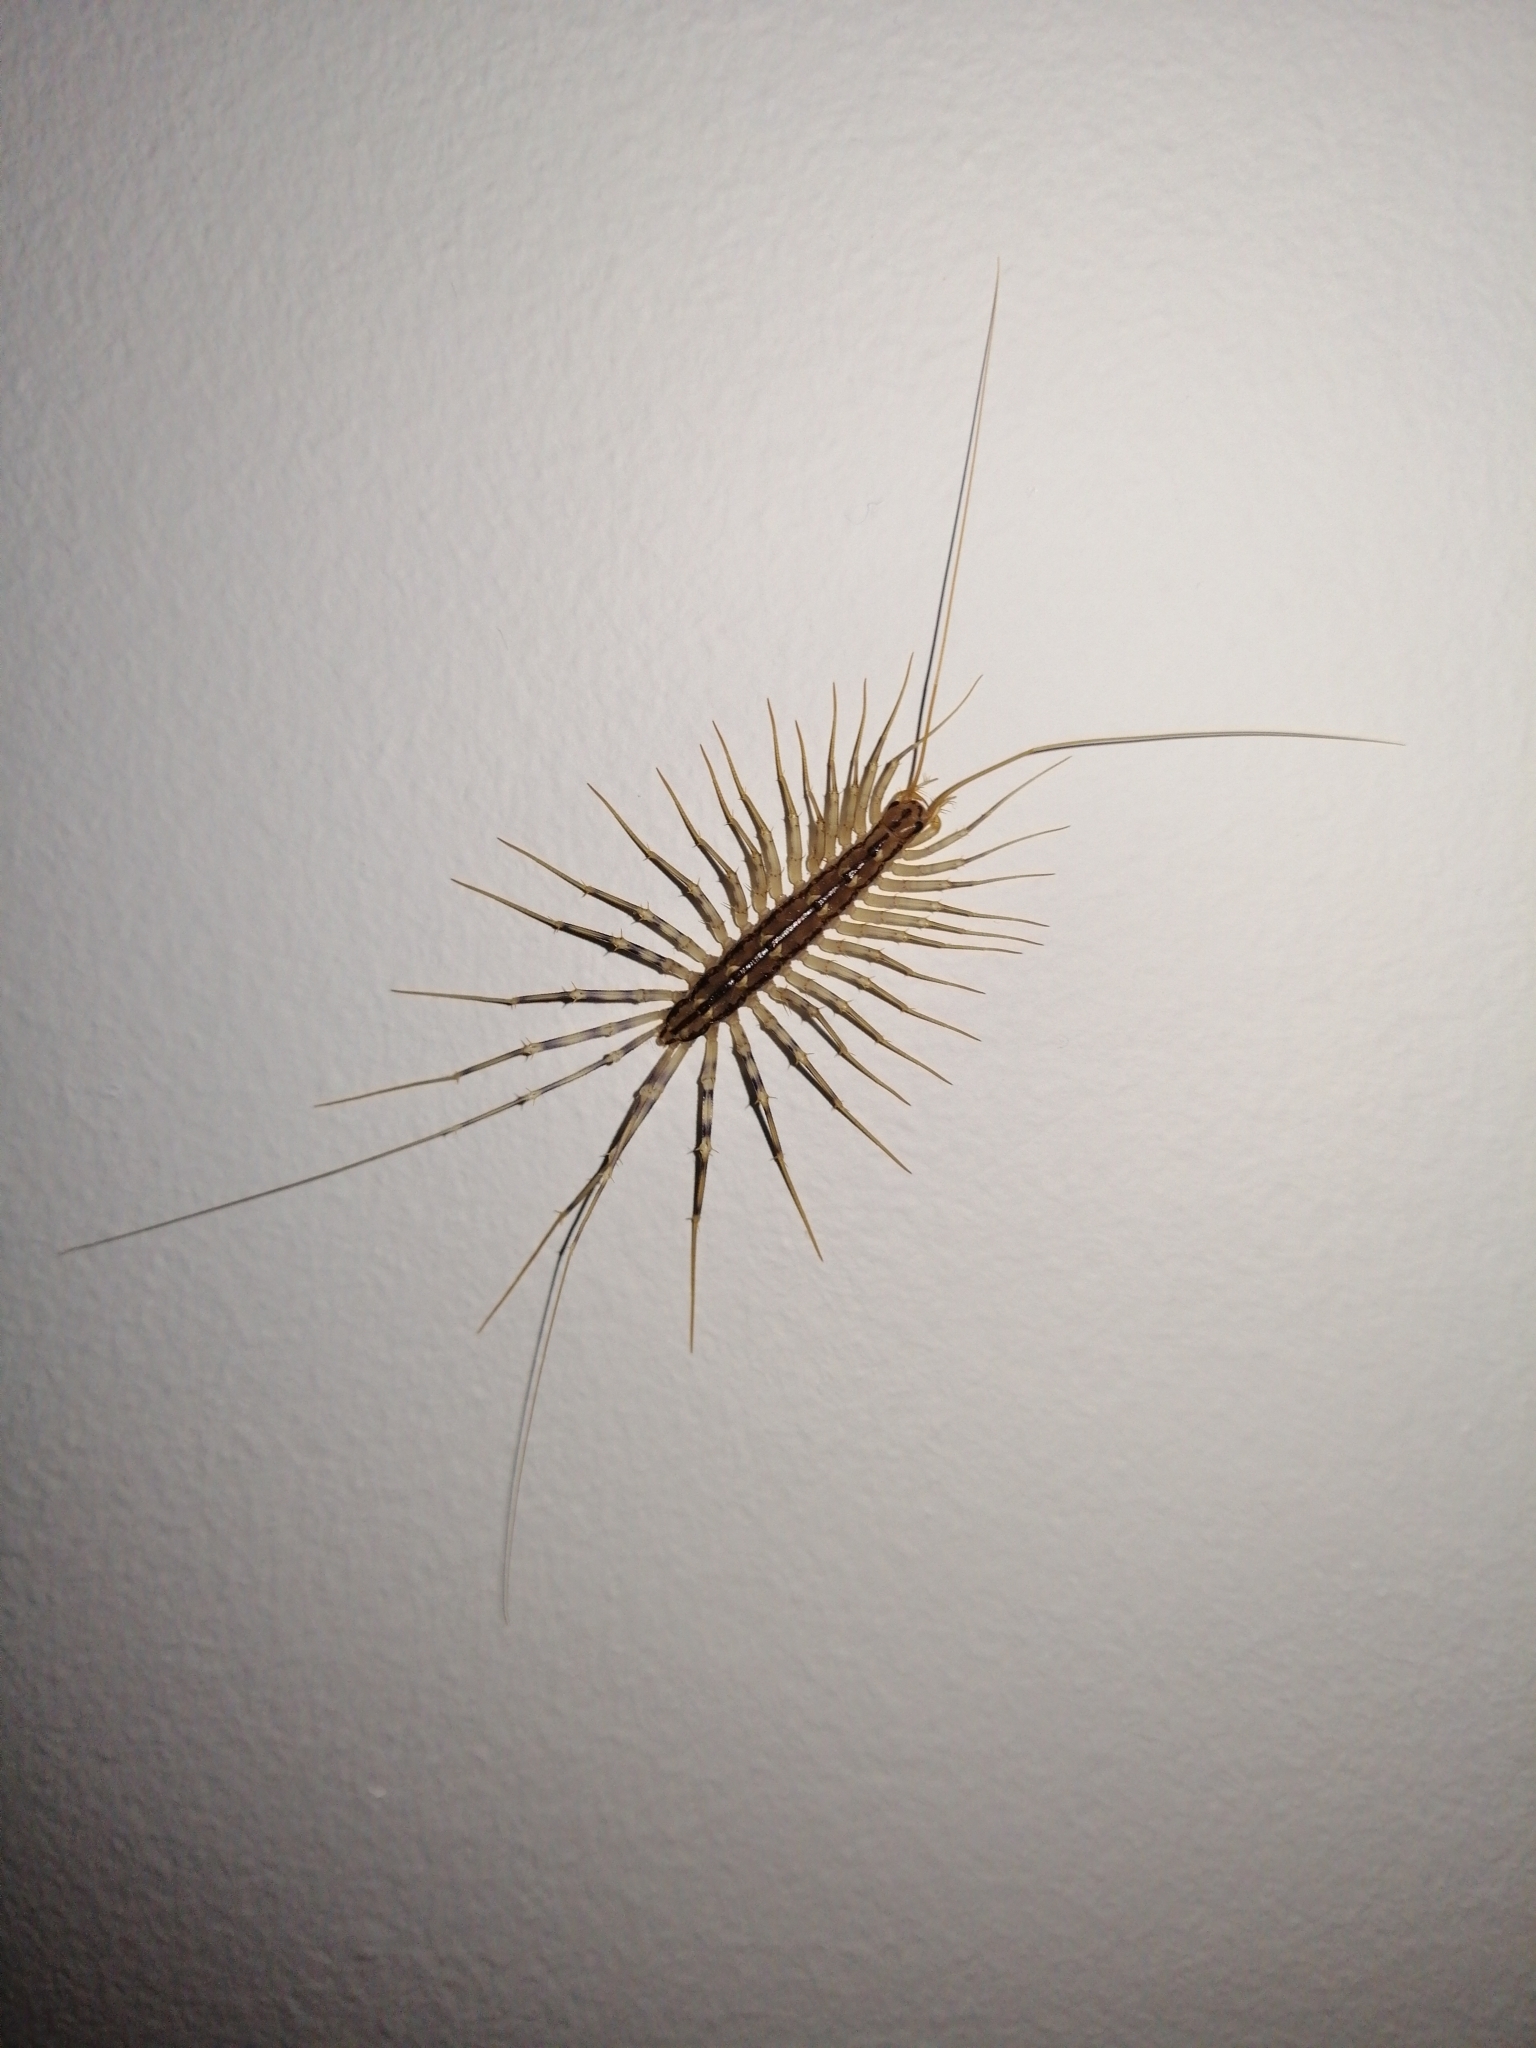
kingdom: Animalia
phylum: Arthropoda
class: Chilopoda
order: Scutigeromorpha
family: Scutigeridae
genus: Scutigera
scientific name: Scutigera coleoptrata
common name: House centipede
